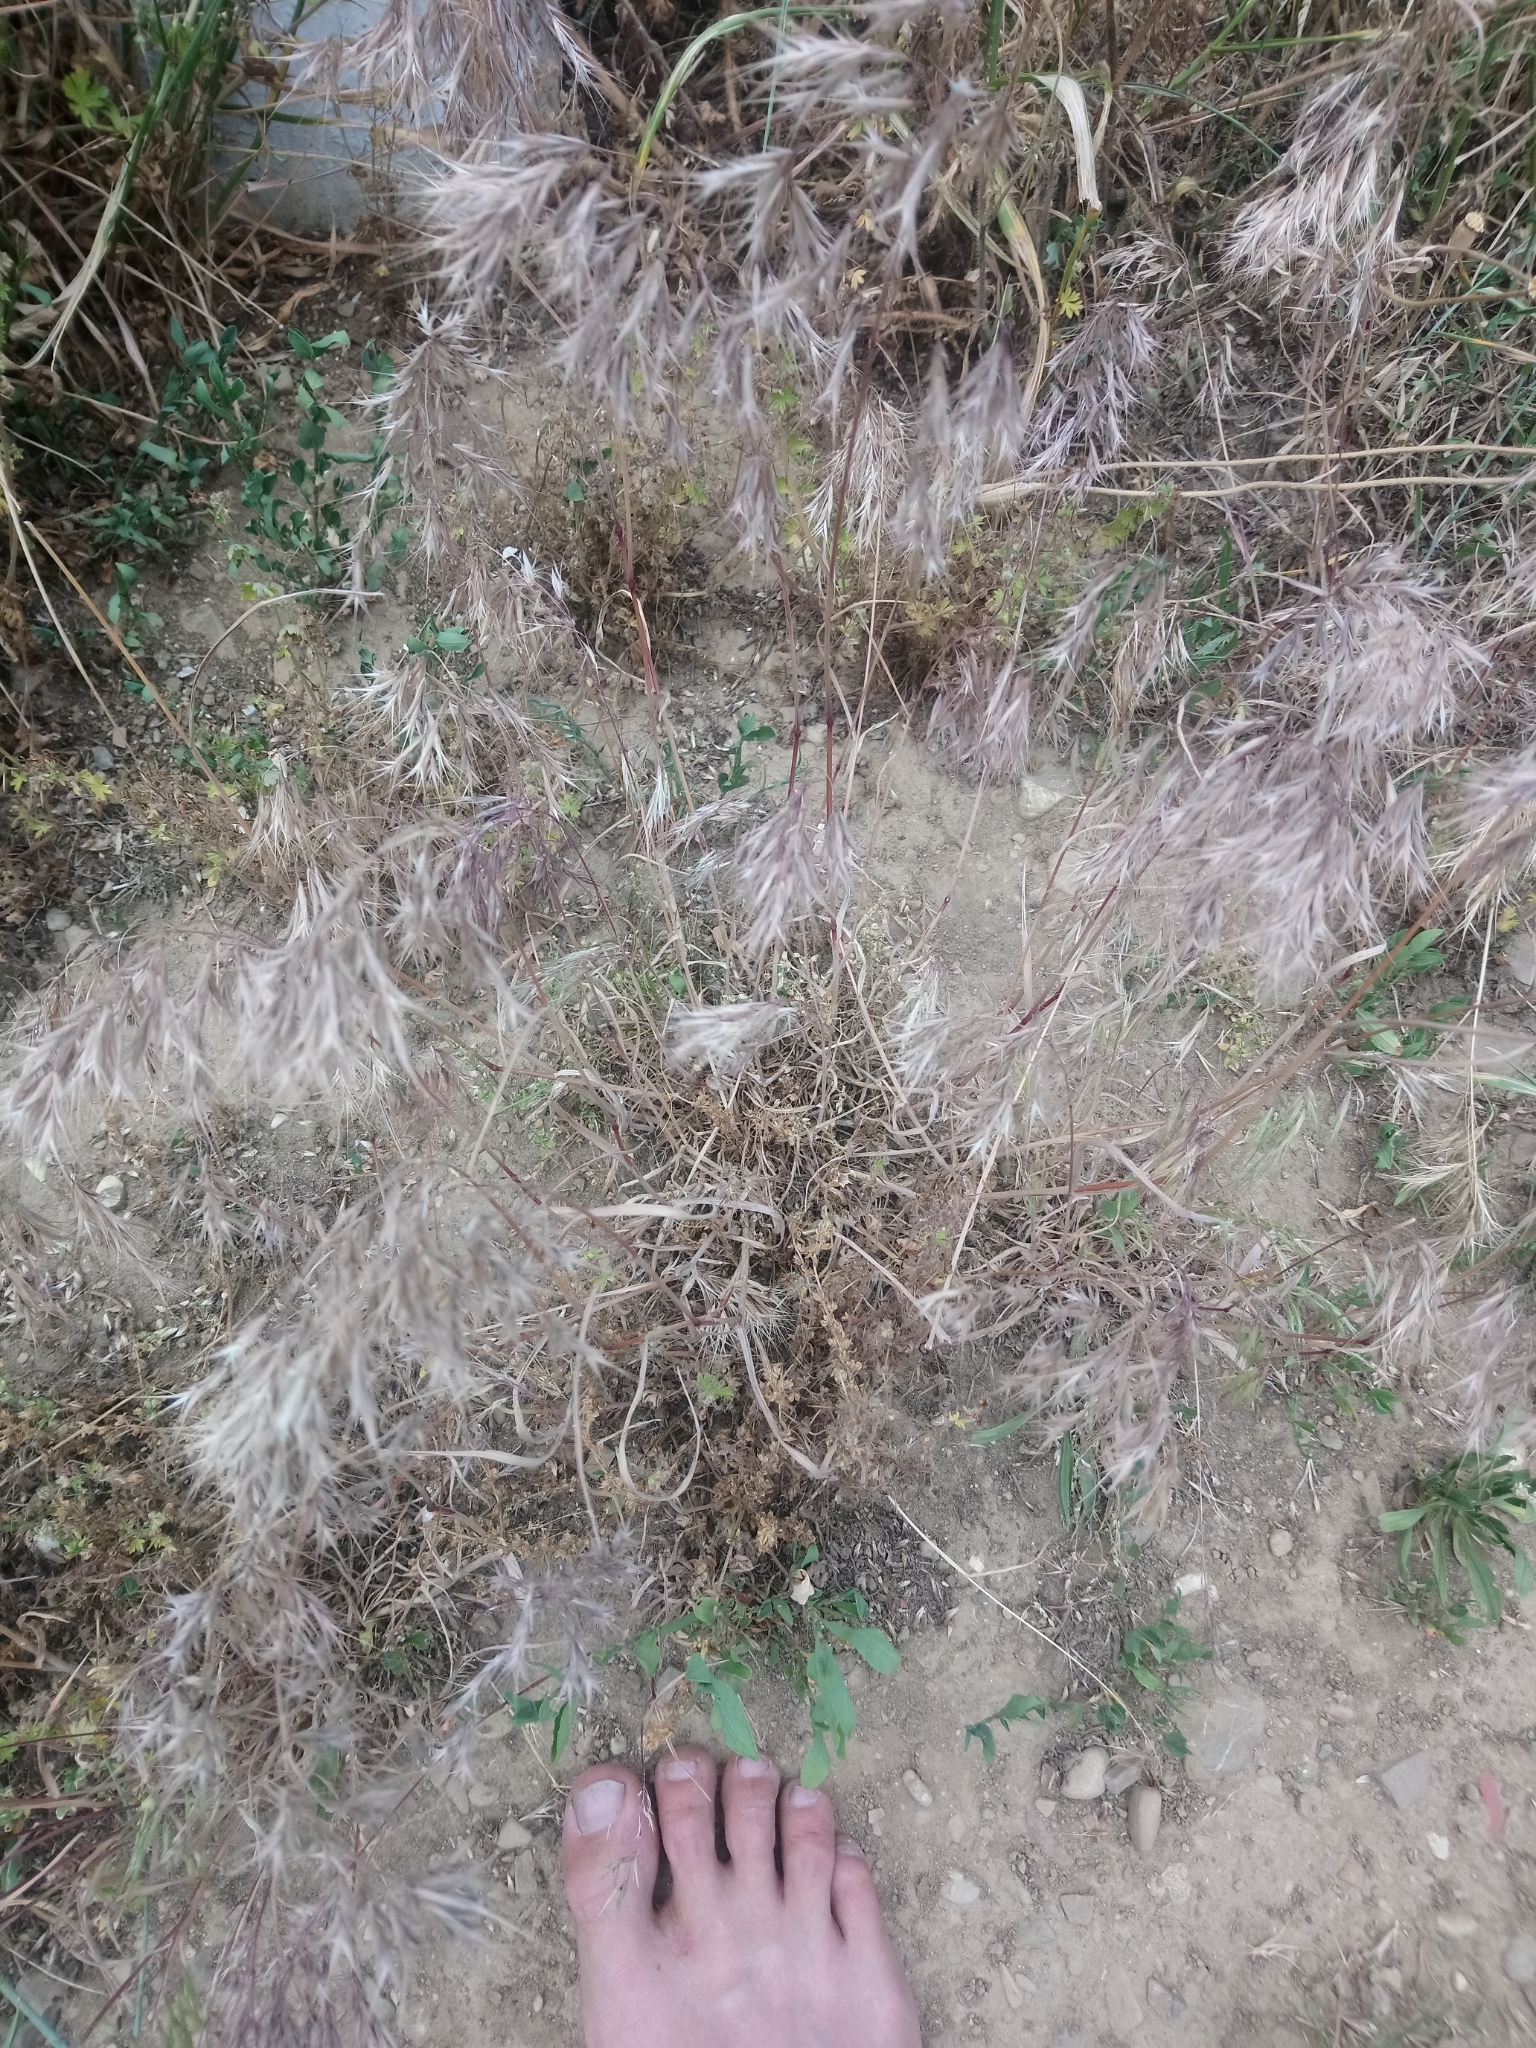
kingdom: Plantae
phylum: Tracheophyta
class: Liliopsida
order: Poales
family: Poaceae
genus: Bromus
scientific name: Bromus tectorum
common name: Cheatgrass
